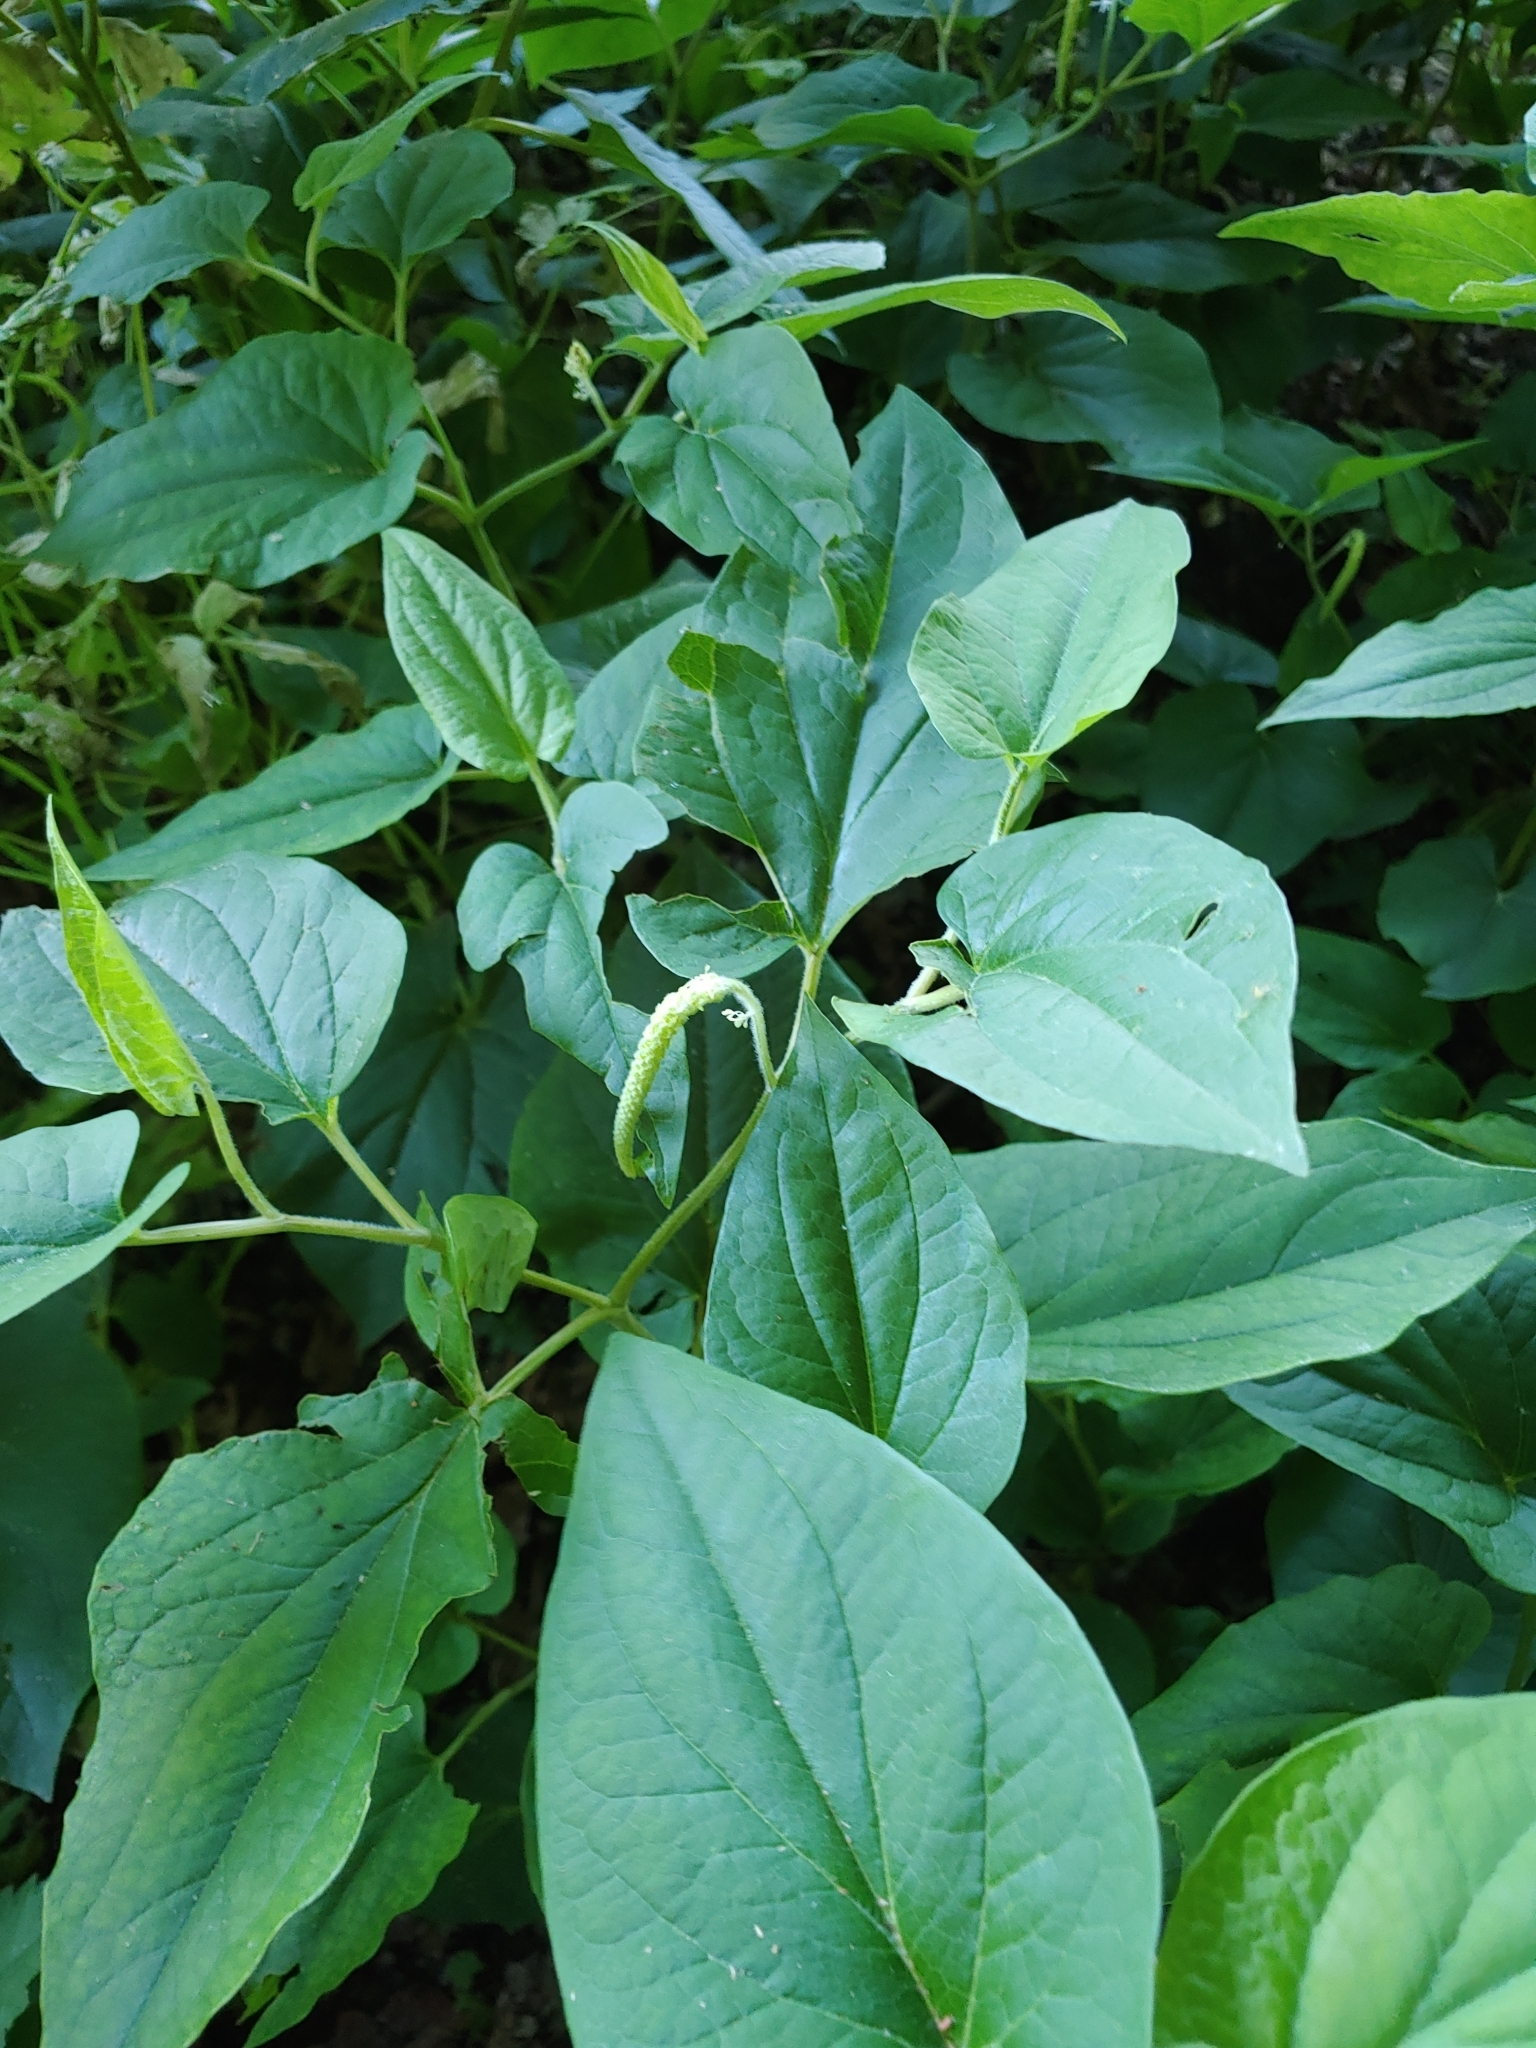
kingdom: Plantae
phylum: Tracheophyta
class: Magnoliopsida
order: Piperales
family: Saururaceae
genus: Saururus
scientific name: Saururus cernuus
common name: Lizard's-tail
